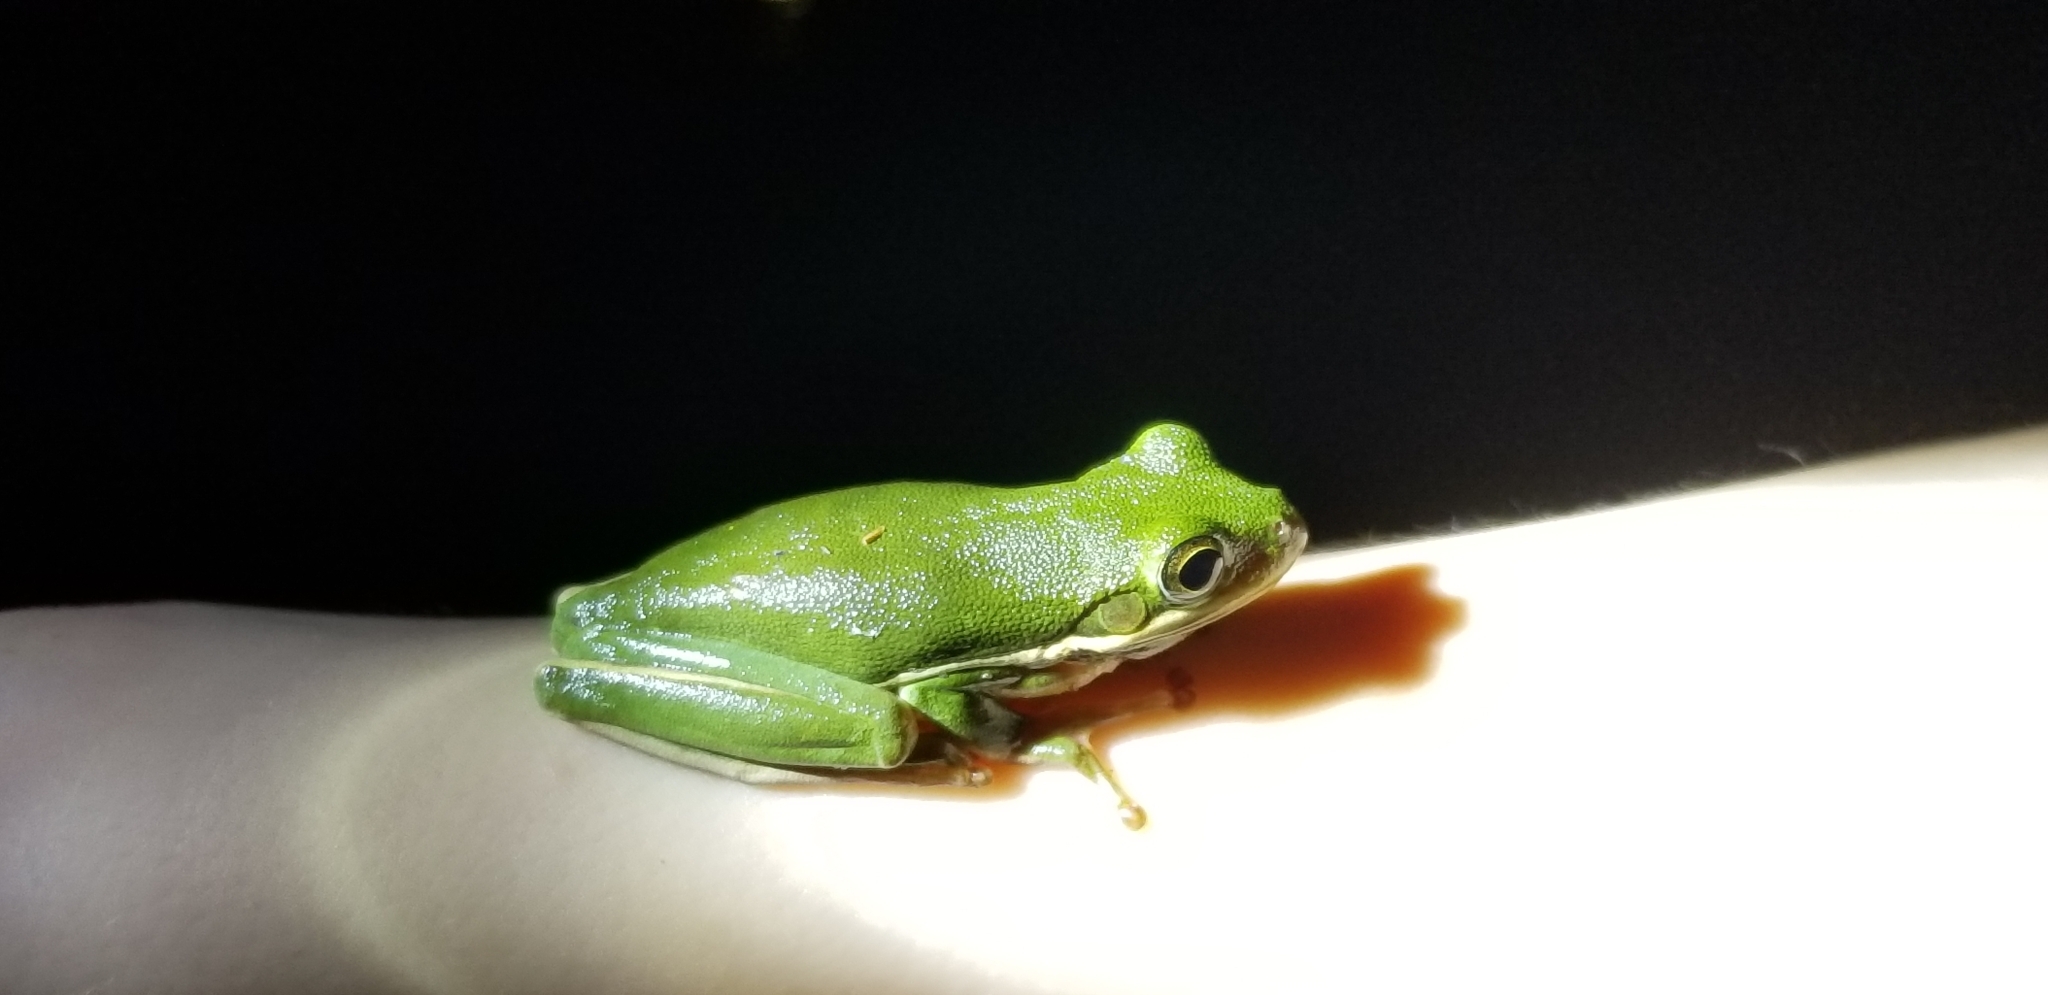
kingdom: Animalia
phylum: Chordata
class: Amphibia
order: Anura
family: Hylidae
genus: Dryophytes
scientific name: Dryophytes cinereus
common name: Green treefrog
